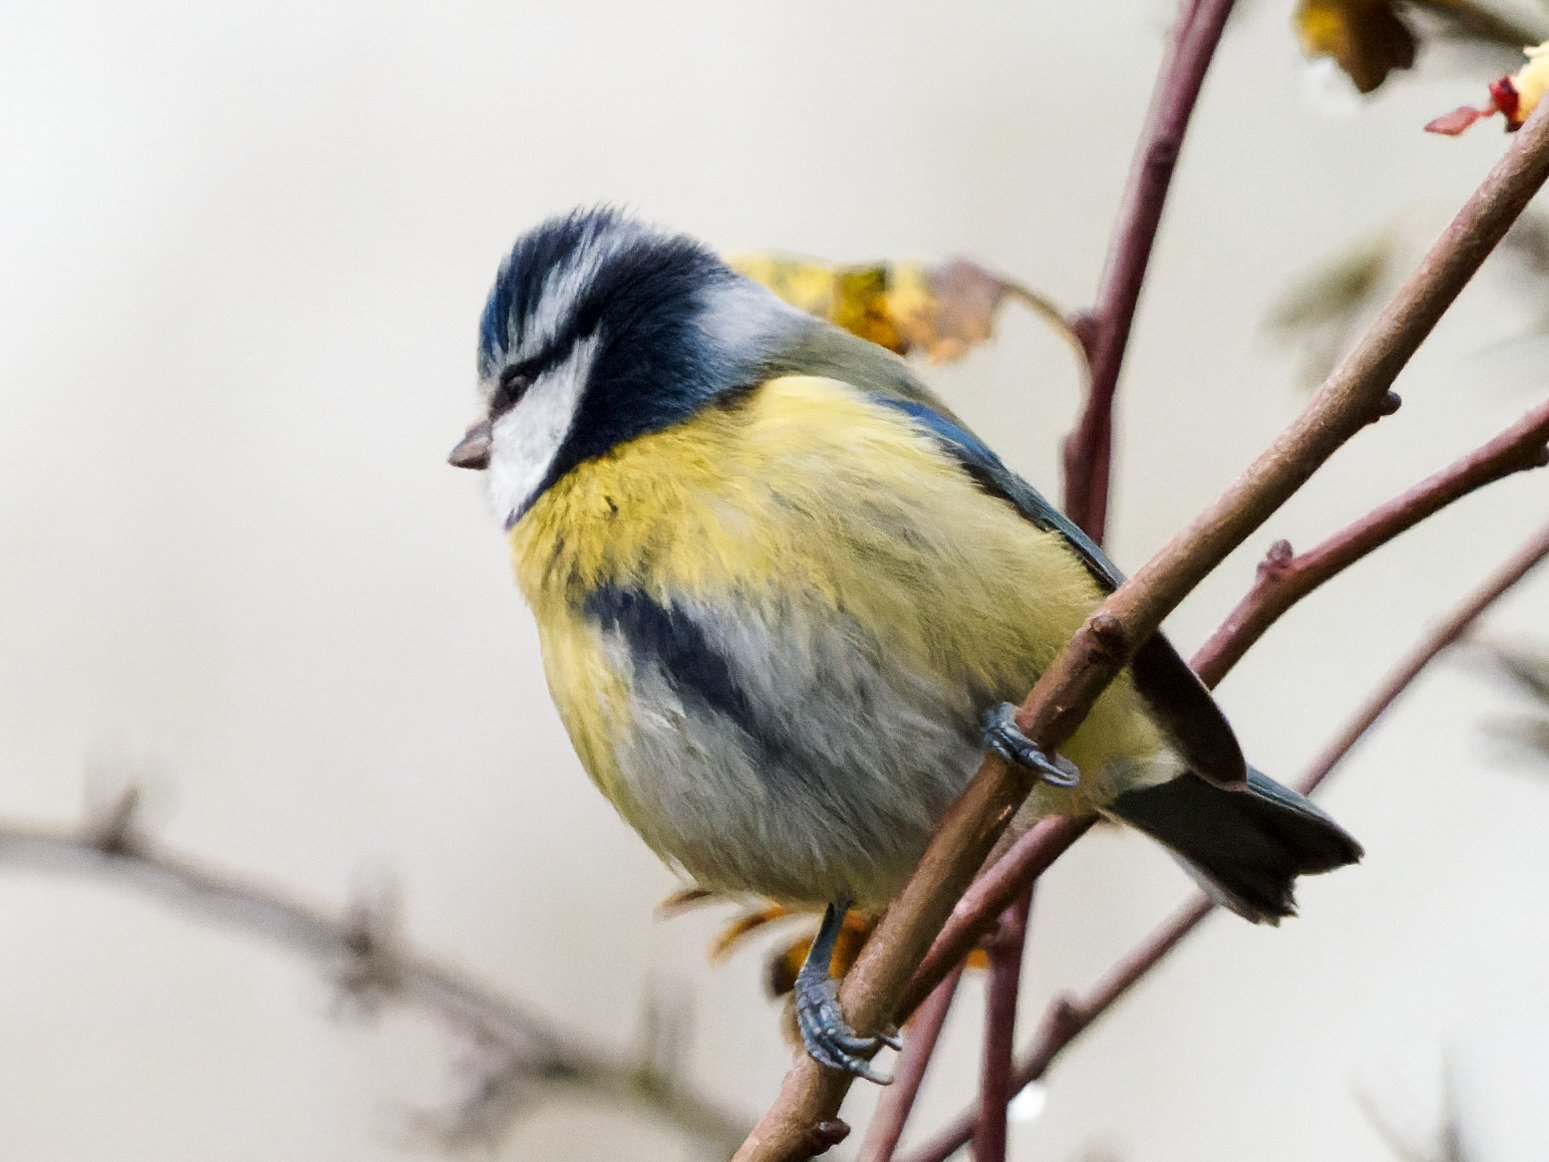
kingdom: Animalia
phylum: Chordata
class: Aves
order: Passeriformes
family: Paridae
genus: Cyanistes
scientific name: Cyanistes caeruleus
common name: Eurasian blue tit
